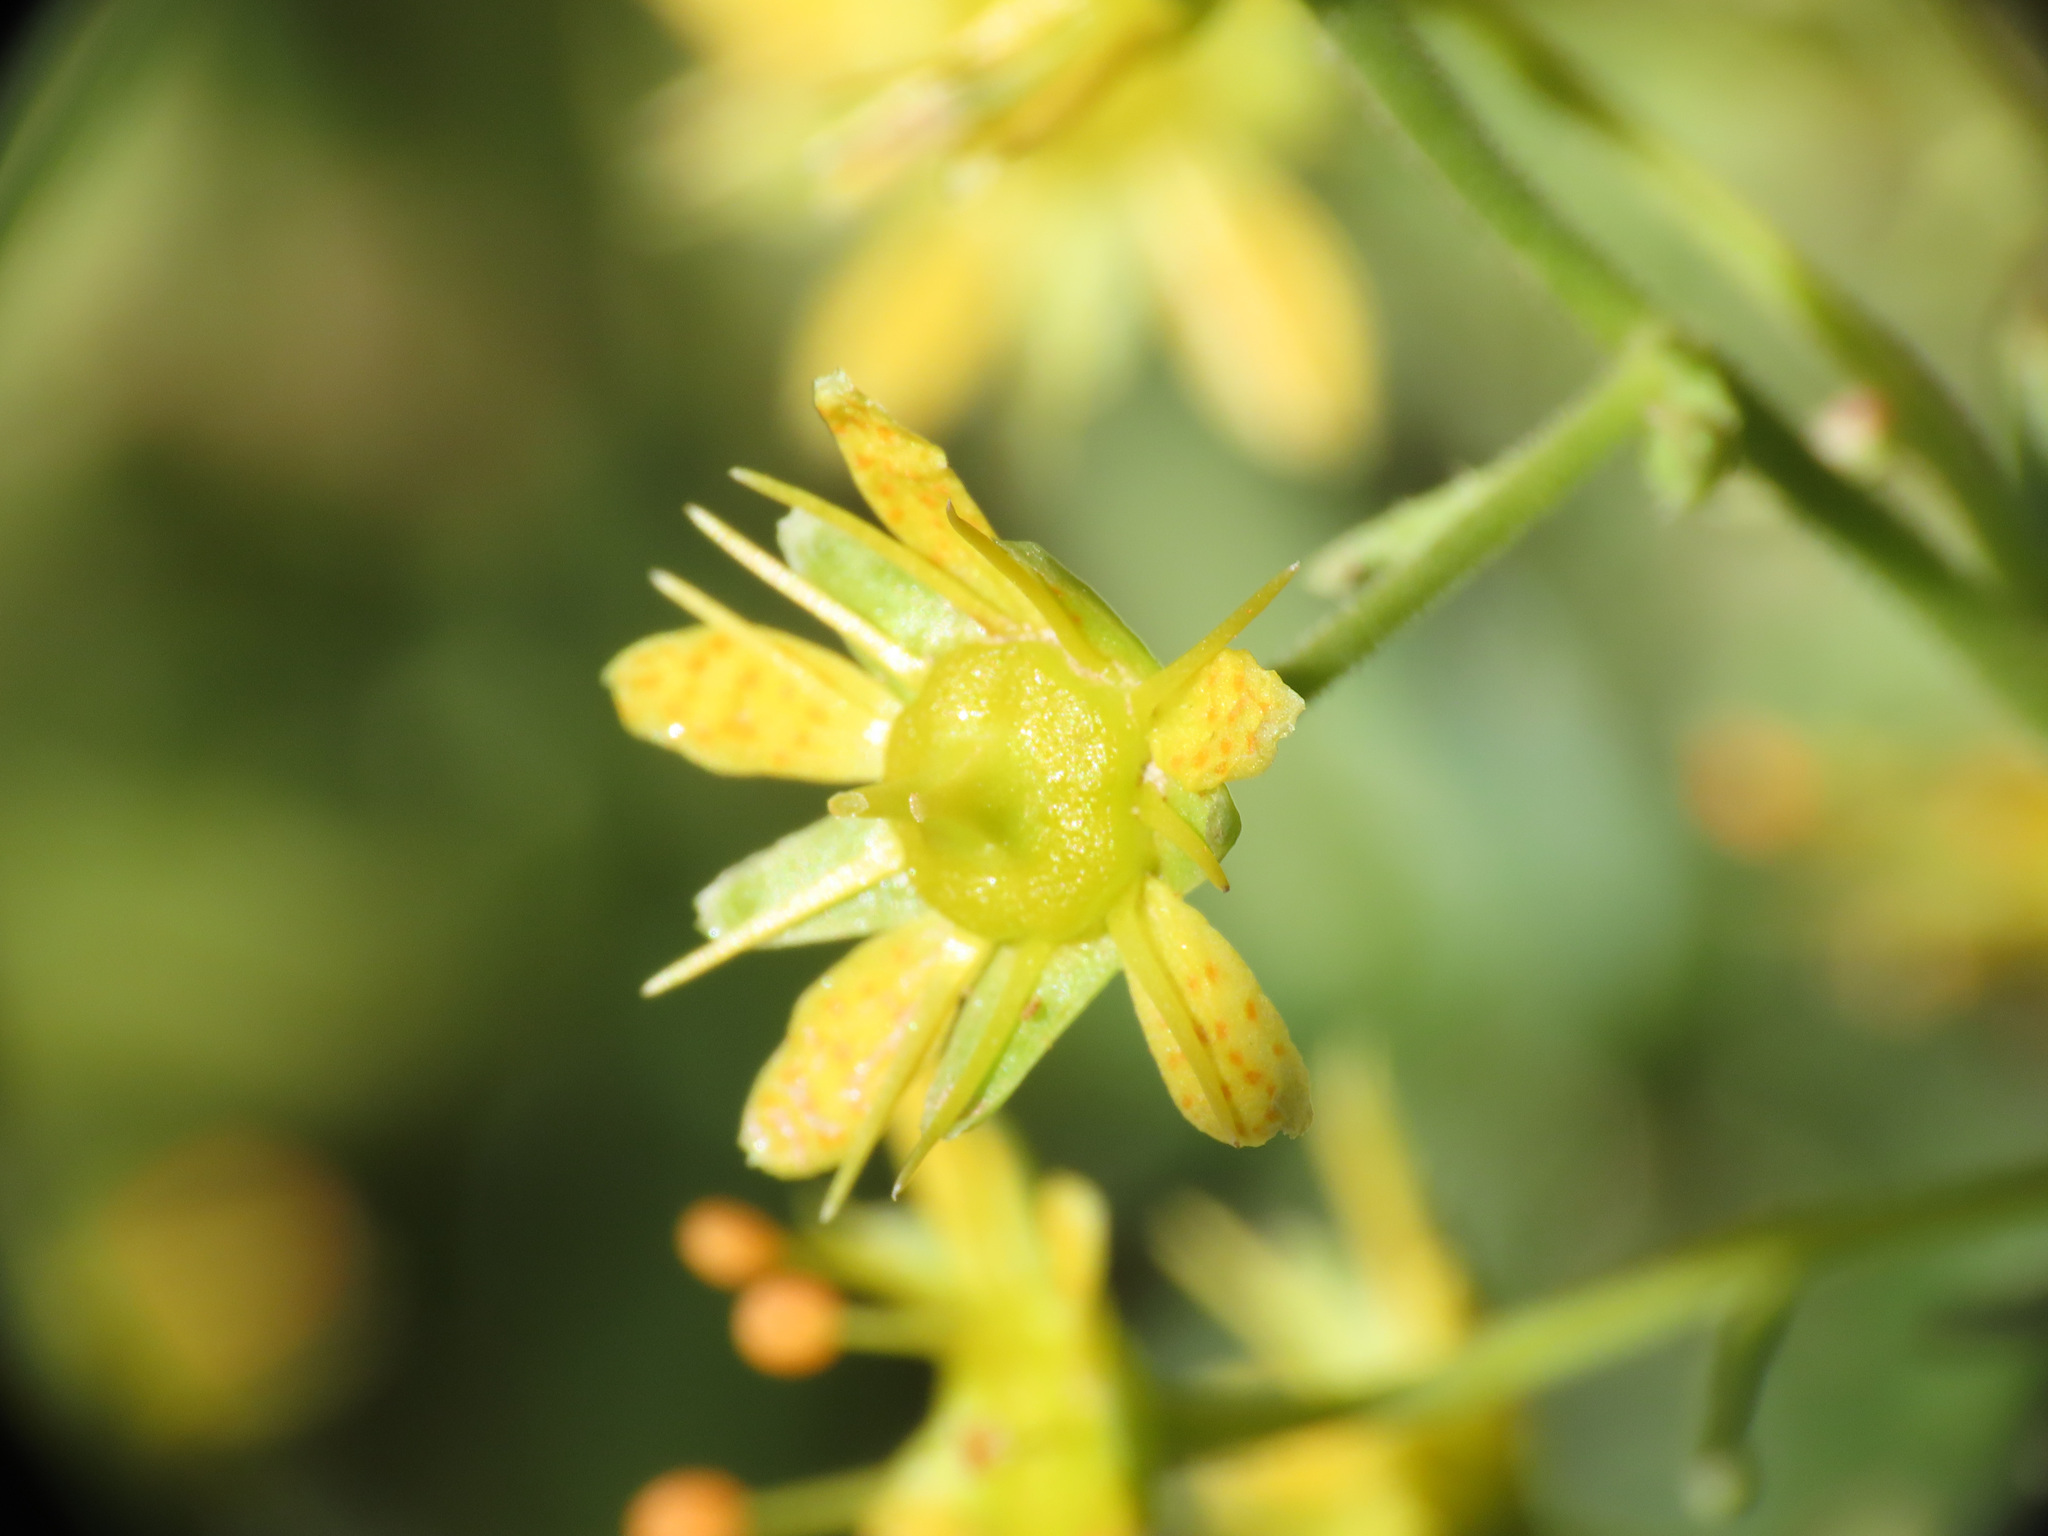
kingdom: Plantae
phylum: Tracheophyta
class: Magnoliopsida
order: Saxifragales
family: Saxifragaceae
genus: Saxifraga
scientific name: Saxifraga aizoides
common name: Yellow mountain saxifrage
